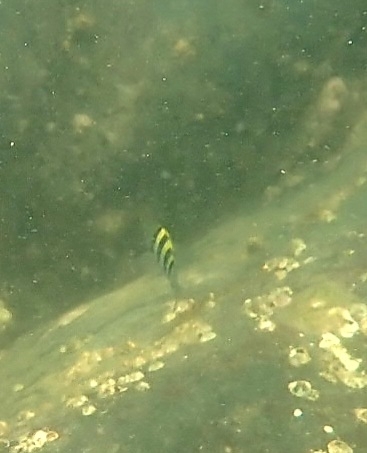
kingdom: Animalia
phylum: Chordata
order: Perciformes
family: Pomacentridae
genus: Abudefduf
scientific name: Abudefduf vaigiensis
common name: Indo-pacific sergeant
